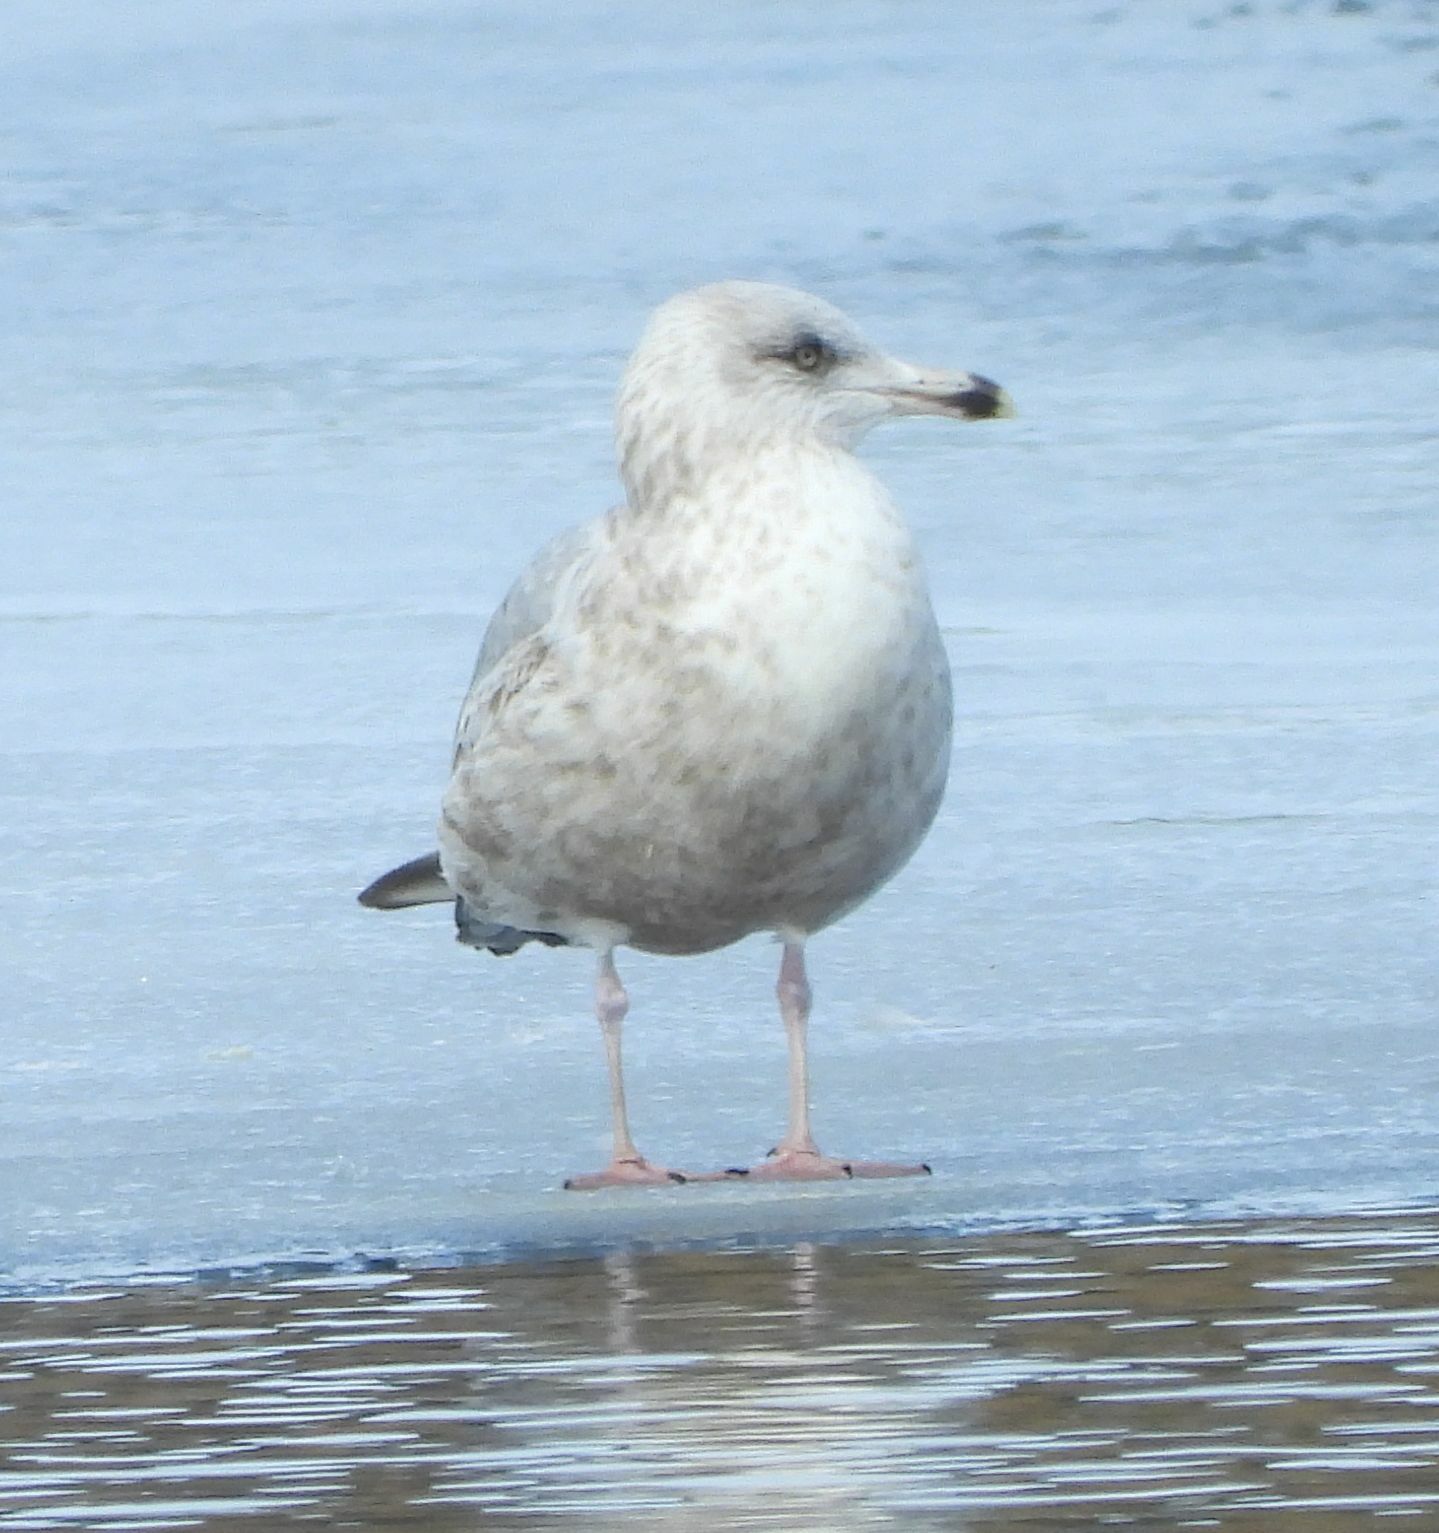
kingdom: Animalia
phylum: Chordata
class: Aves
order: Charadriiformes
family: Laridae
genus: Larus
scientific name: Larus argentatus
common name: Herring gull
